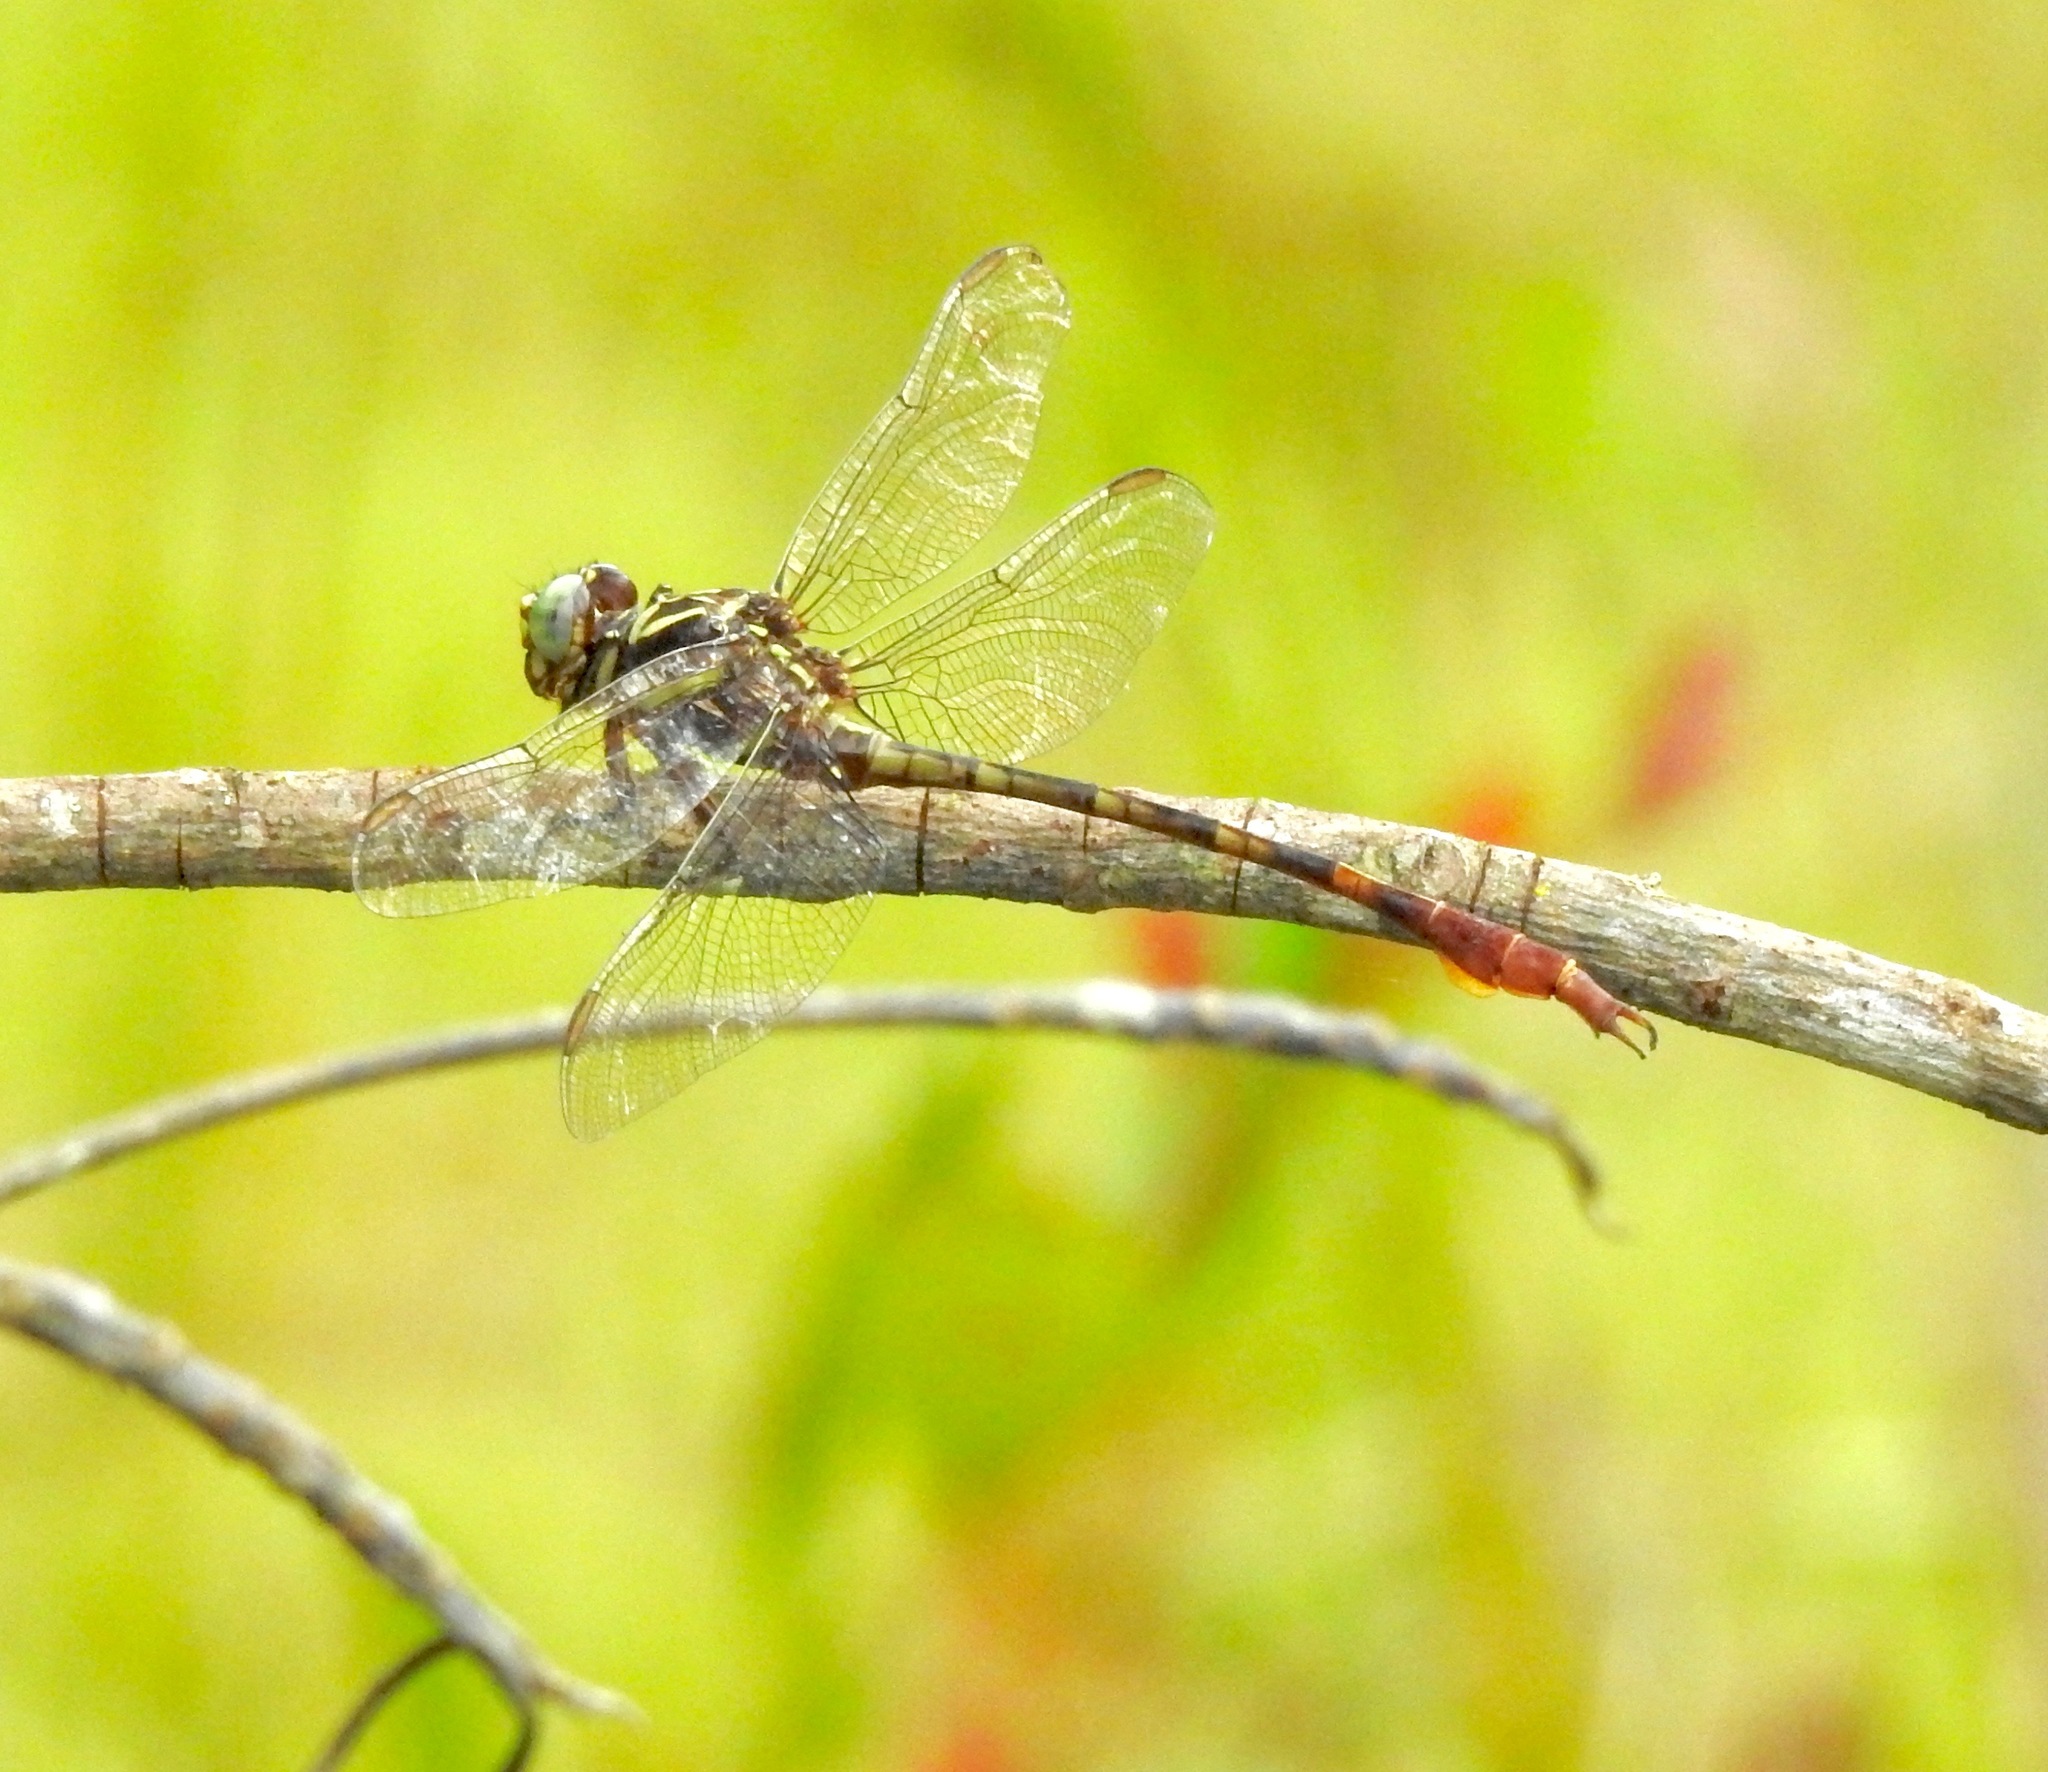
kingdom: Animalia
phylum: Arthropoda
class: Insecta
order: Odonata
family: Gomphidae
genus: Aphylla
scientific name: Aphylla williamsoni
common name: Two-striped forceptail
